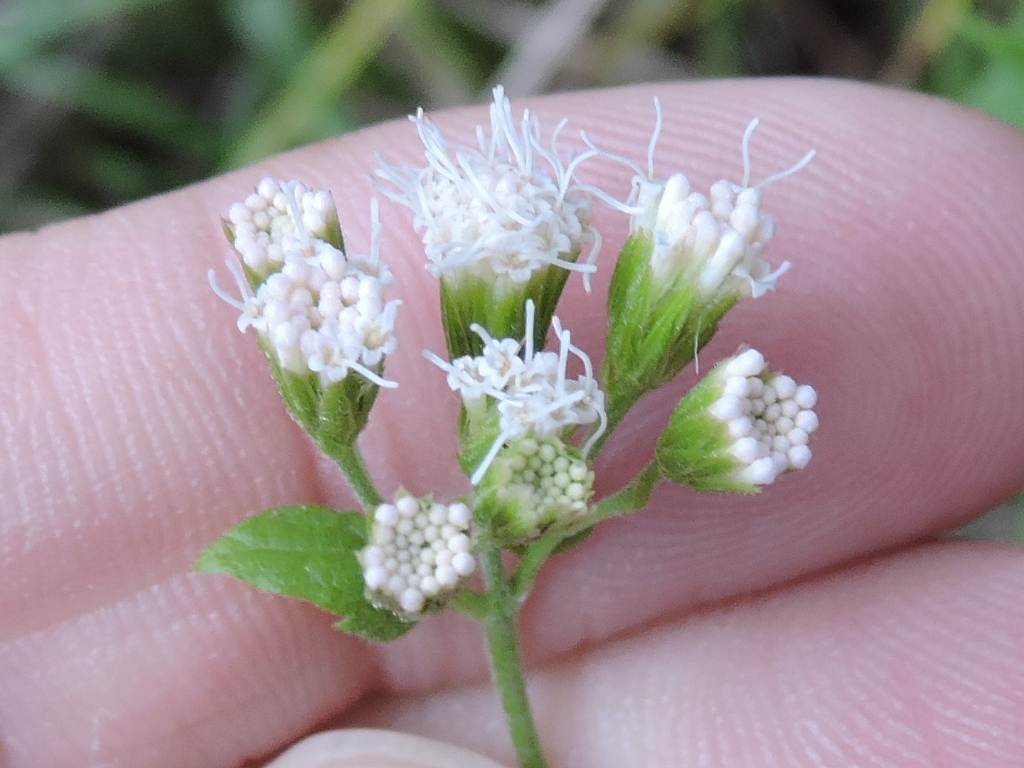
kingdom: Plantae
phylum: Tracheophyta
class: Magnoliopsida
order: Asterales
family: Asteraceae
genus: Ageratina
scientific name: Ageratina havanensis
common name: Havana snakeroot
